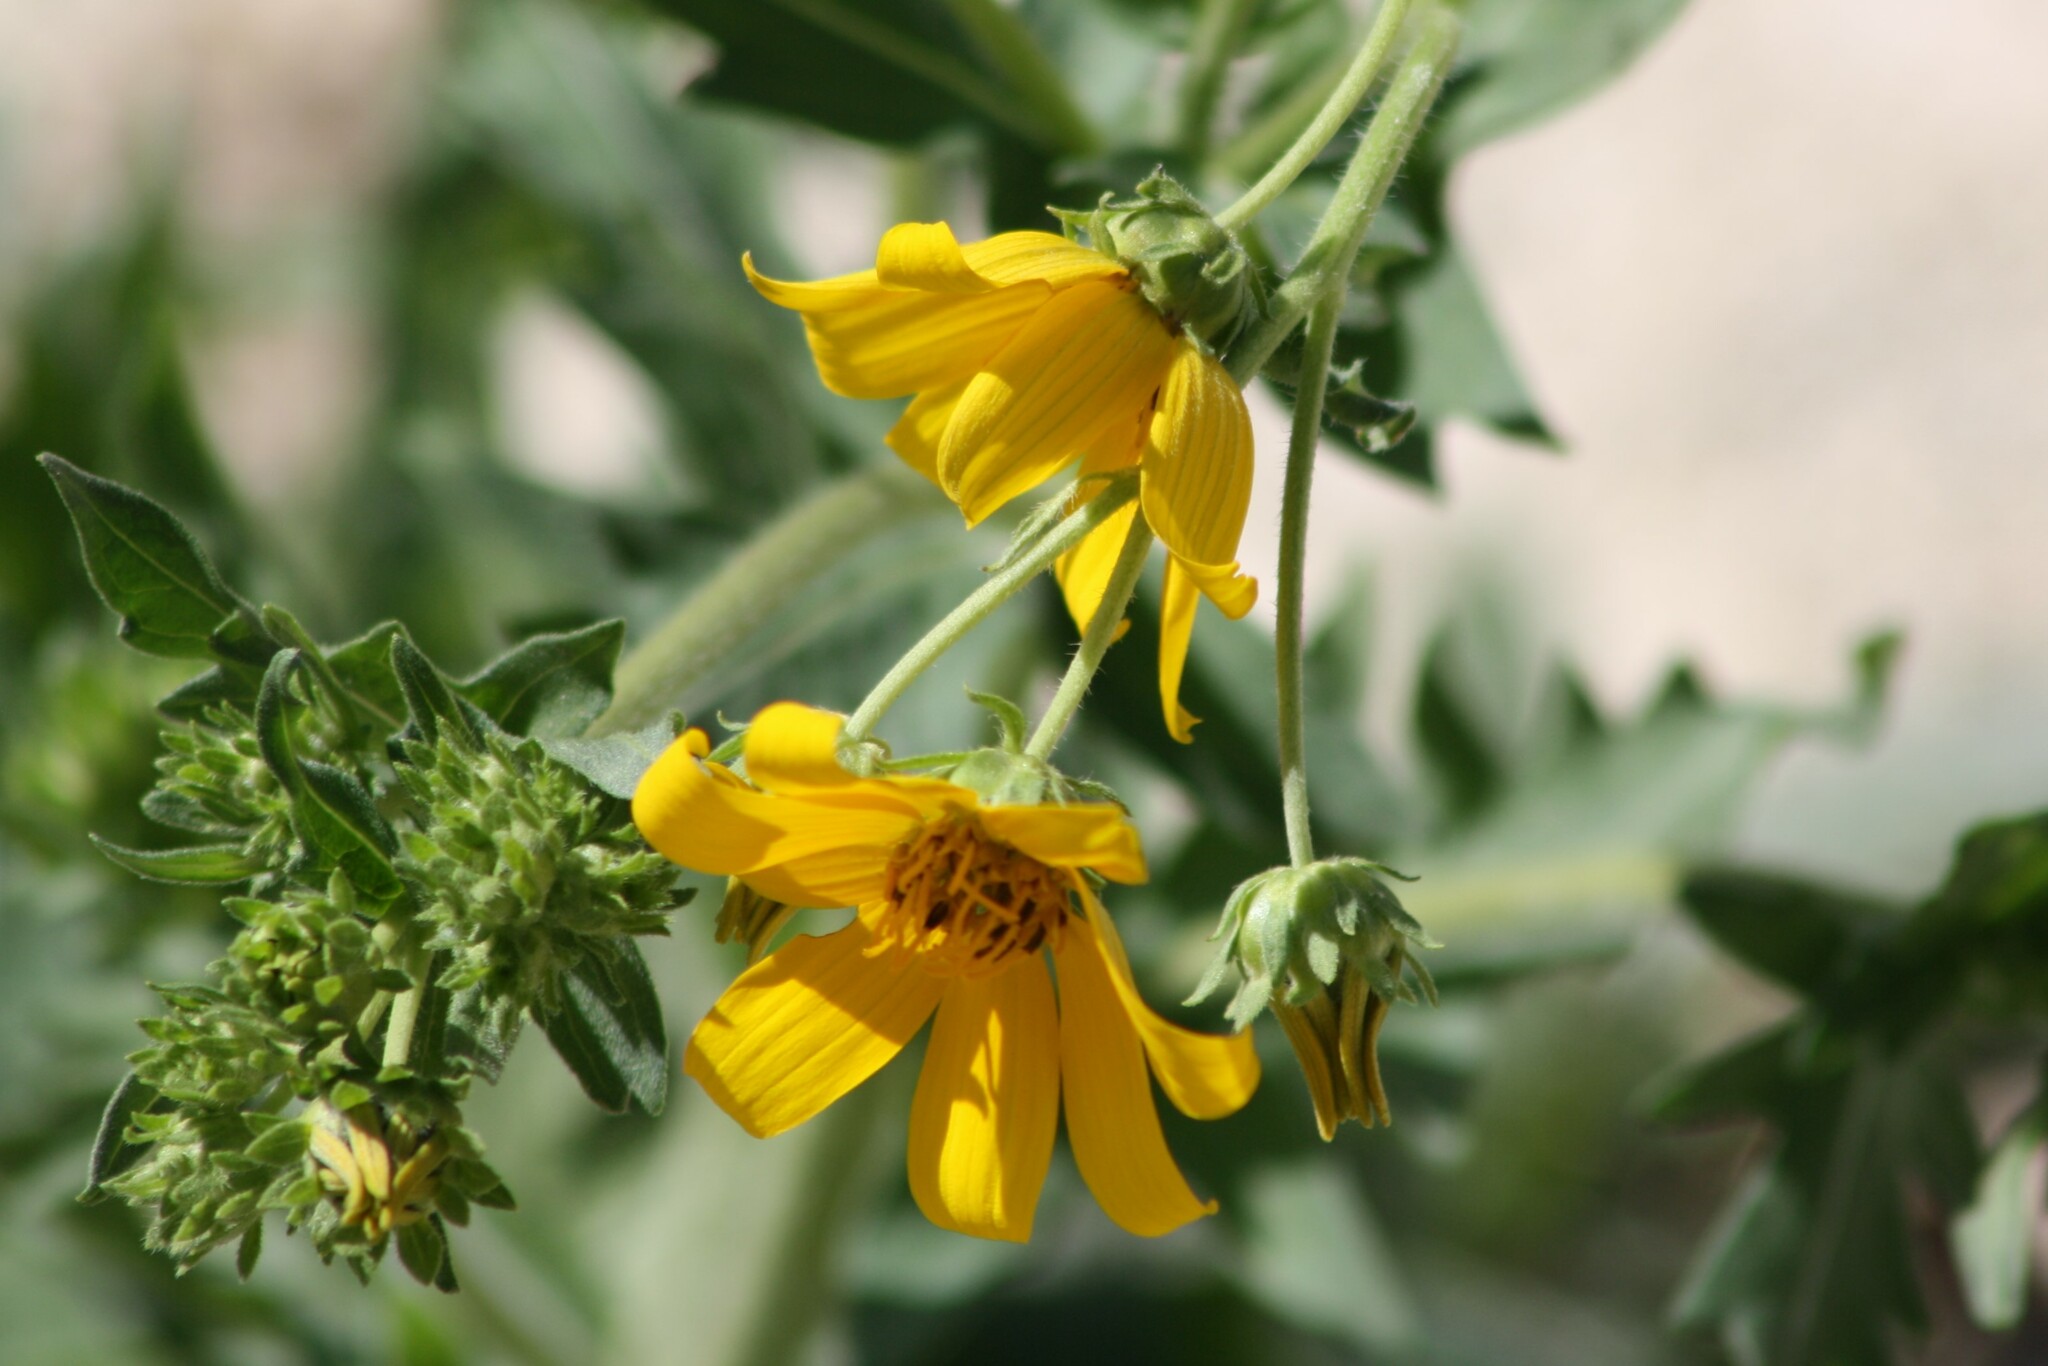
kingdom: Plantae
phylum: Tracheophyta
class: Magnoliopsida
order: Asterales
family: Asteraceae
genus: Engelmannia
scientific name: Engelmannia peristenia
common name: Engelmann's daisy
